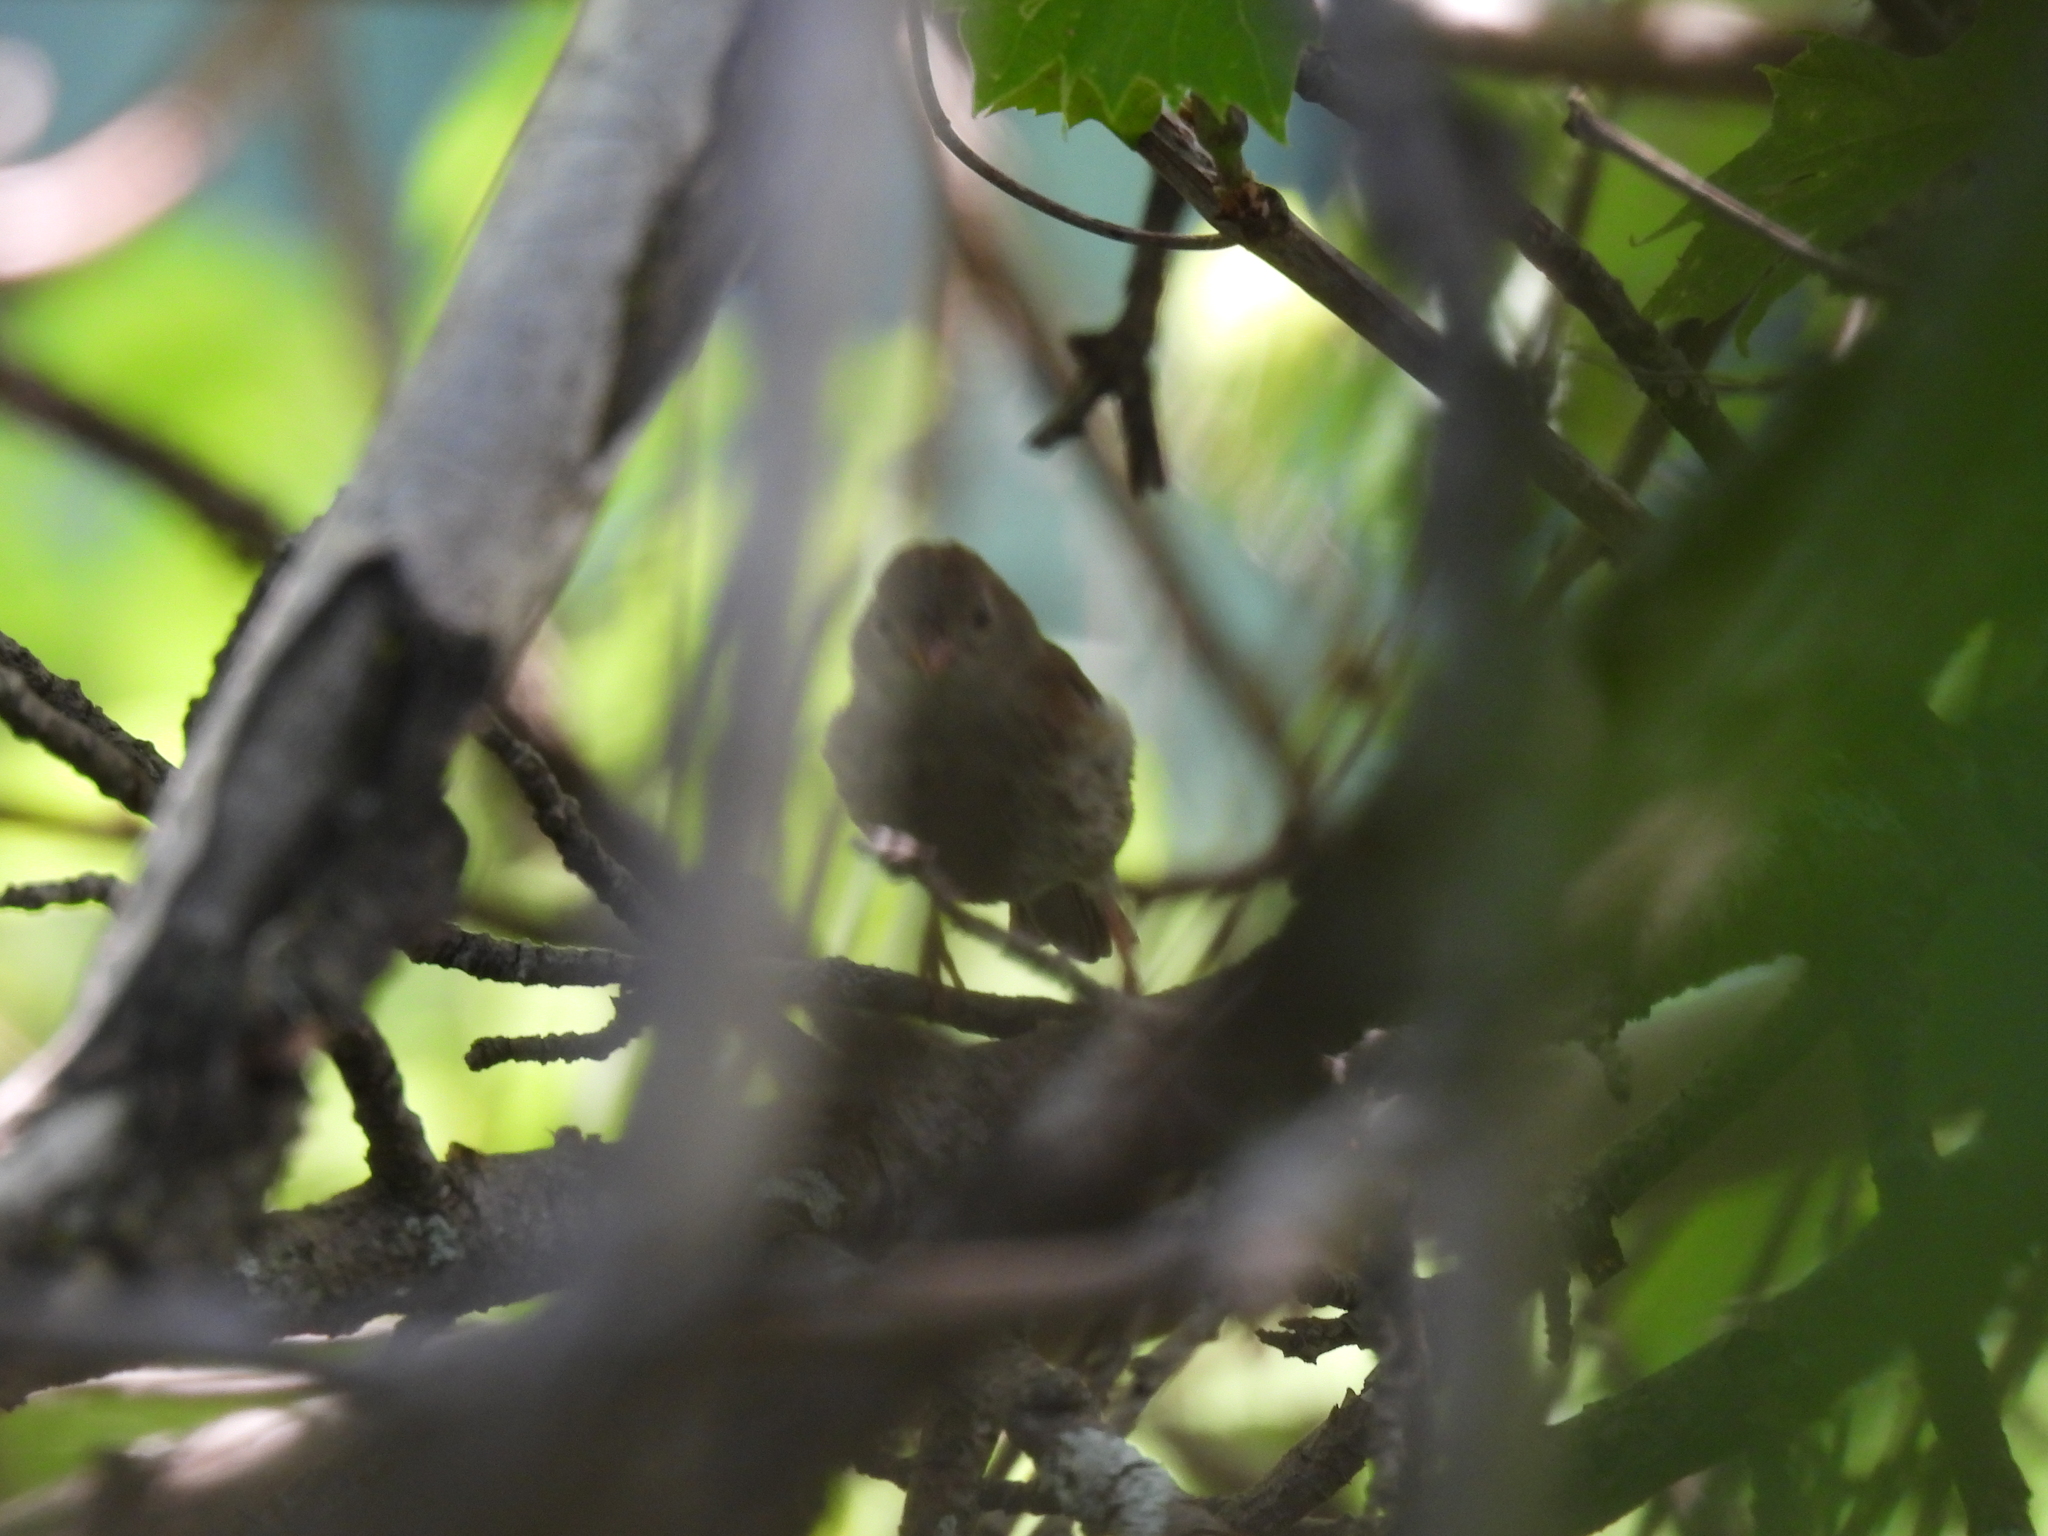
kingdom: Animalia
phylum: Chordata
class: Aves
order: Passeriformes
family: Passerellidae
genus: Spizella
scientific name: Spizella pusilla
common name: Field sparrow
